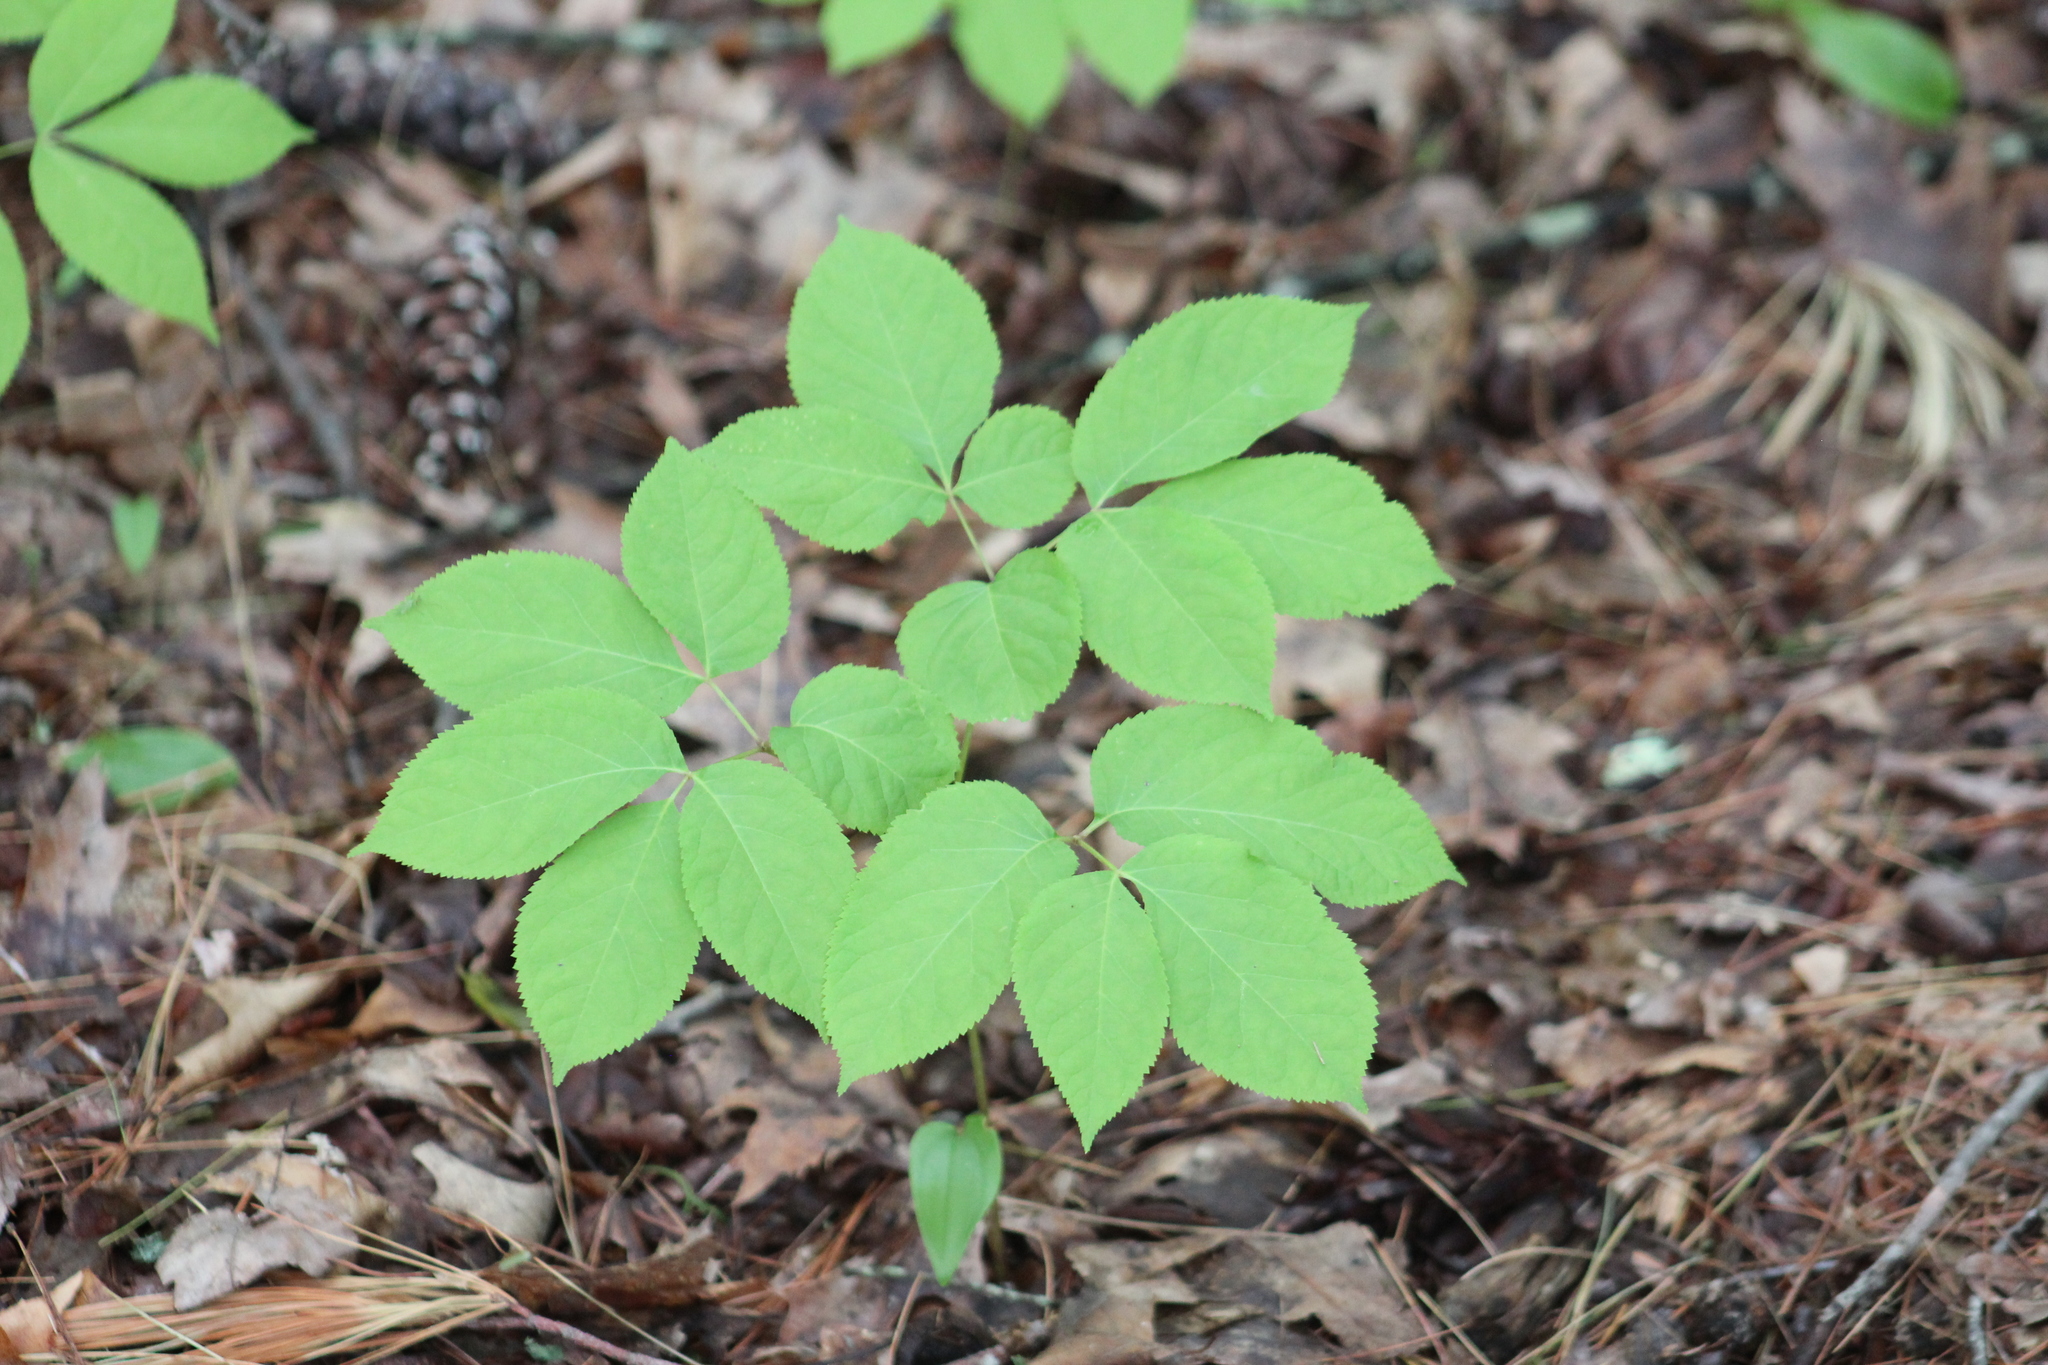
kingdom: Plantae
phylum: Tracheophyta
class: Magnoliopsida
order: Apiales
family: Araliaceae
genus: Aralia
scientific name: Aralia nudicaulis
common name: Wild sarsaparilla
